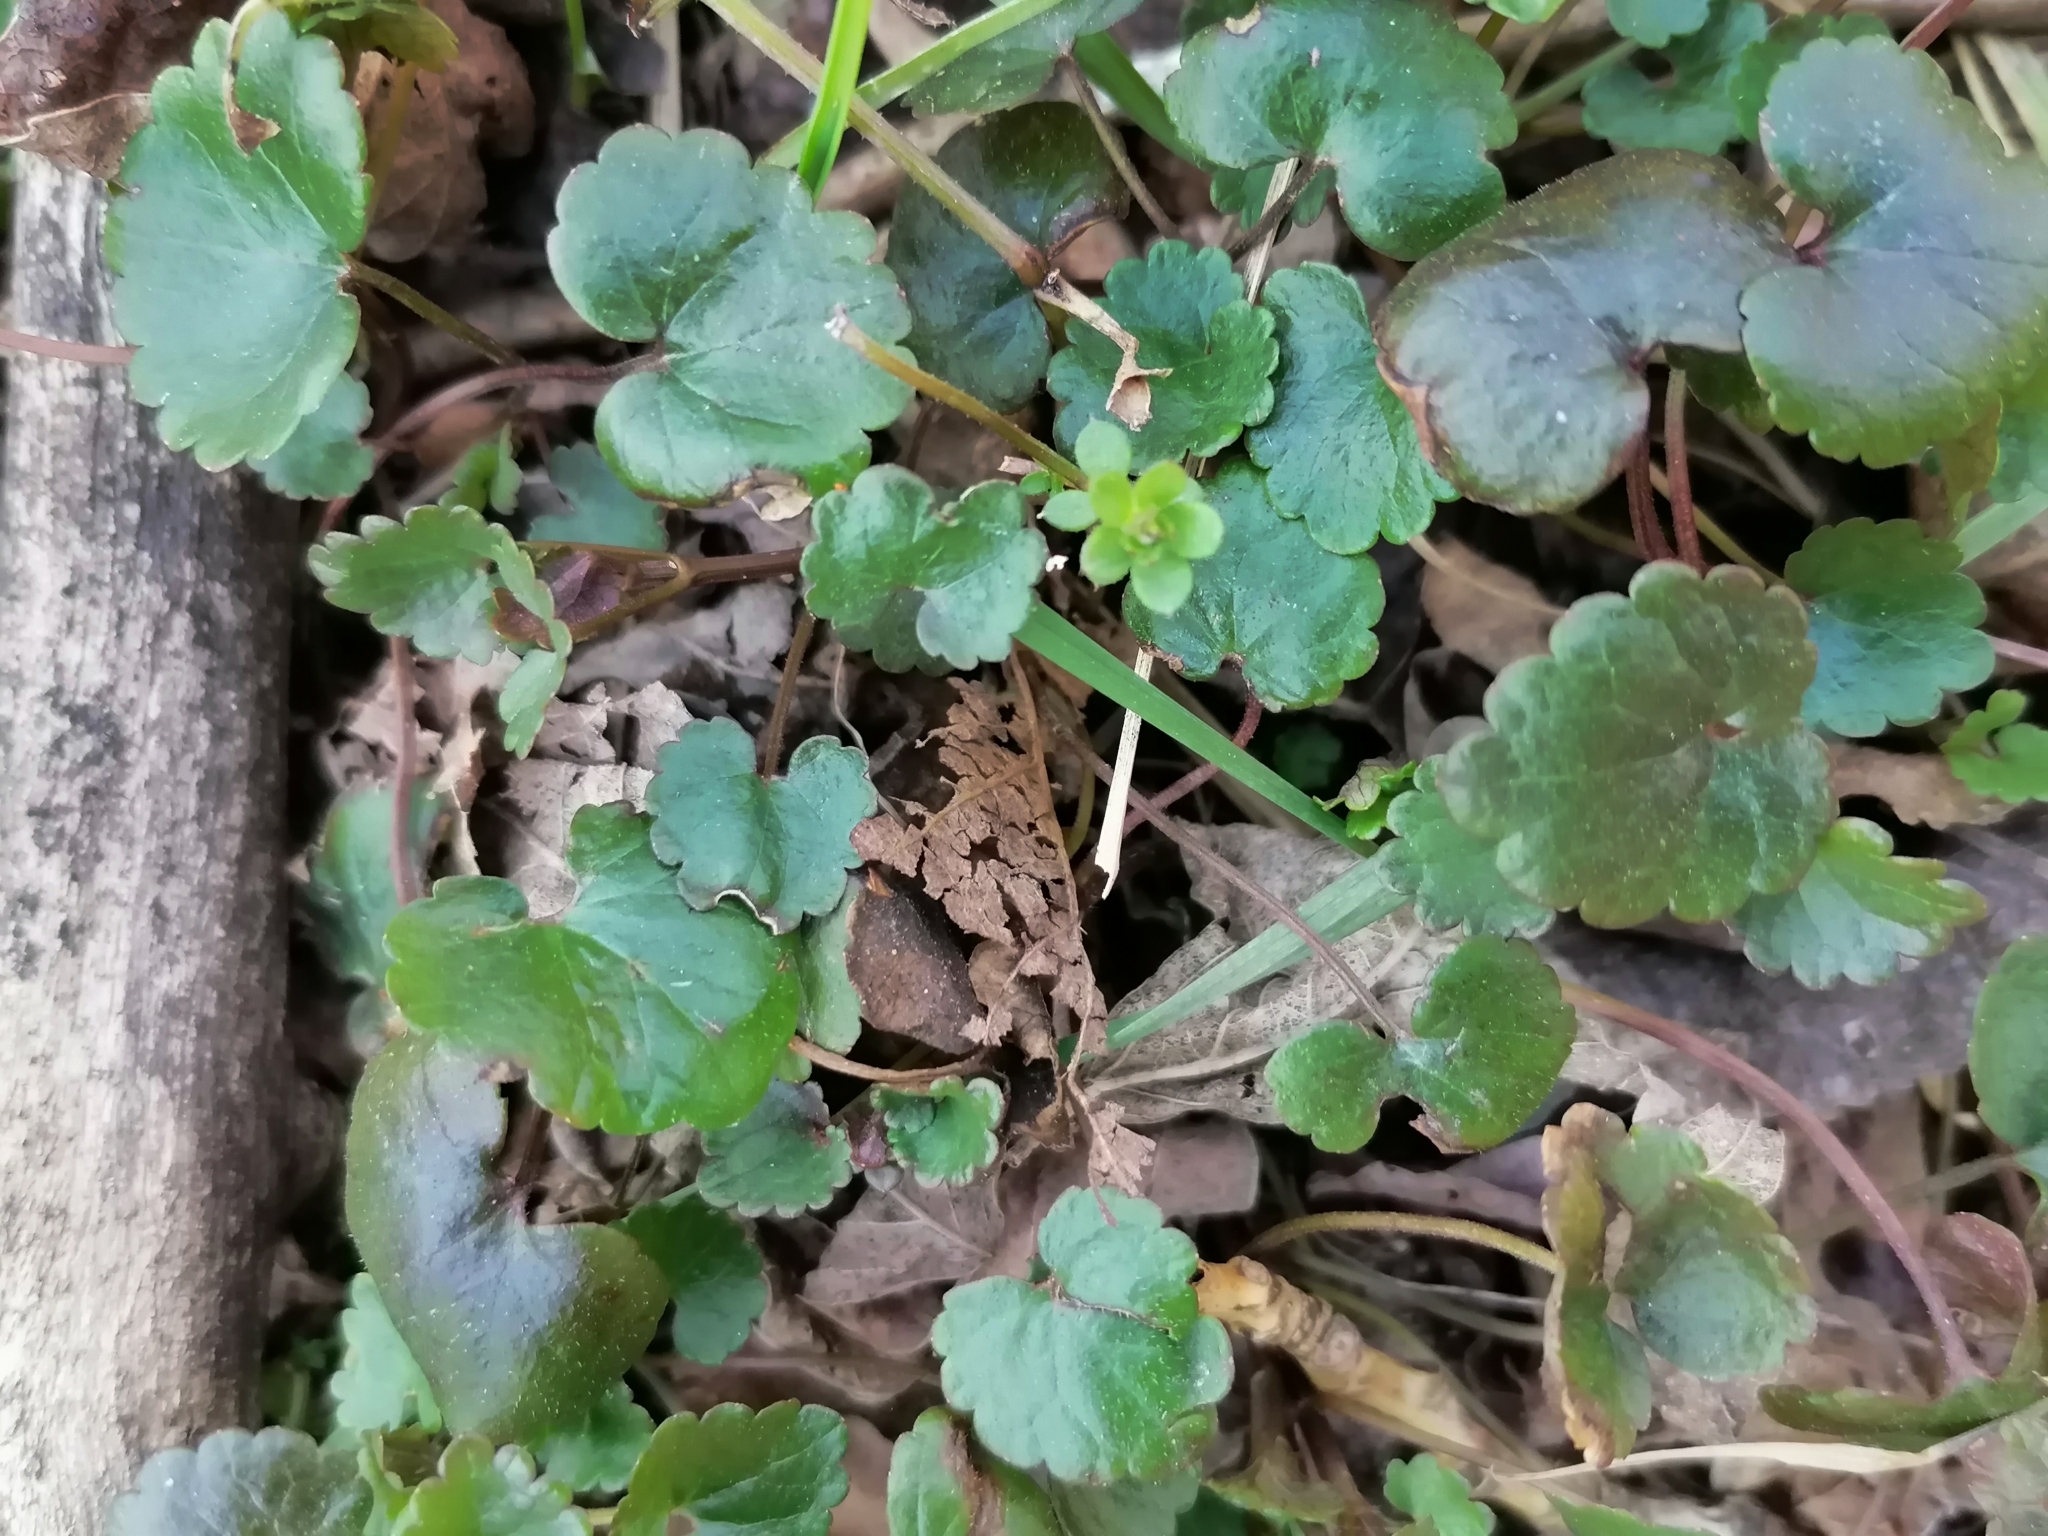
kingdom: Plantae
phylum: Tracheophyta
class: Magnoliopsida
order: Lamiales
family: Lamiaceae
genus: Glechoma
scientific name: Glechoma hederacea
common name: Ground ivy
